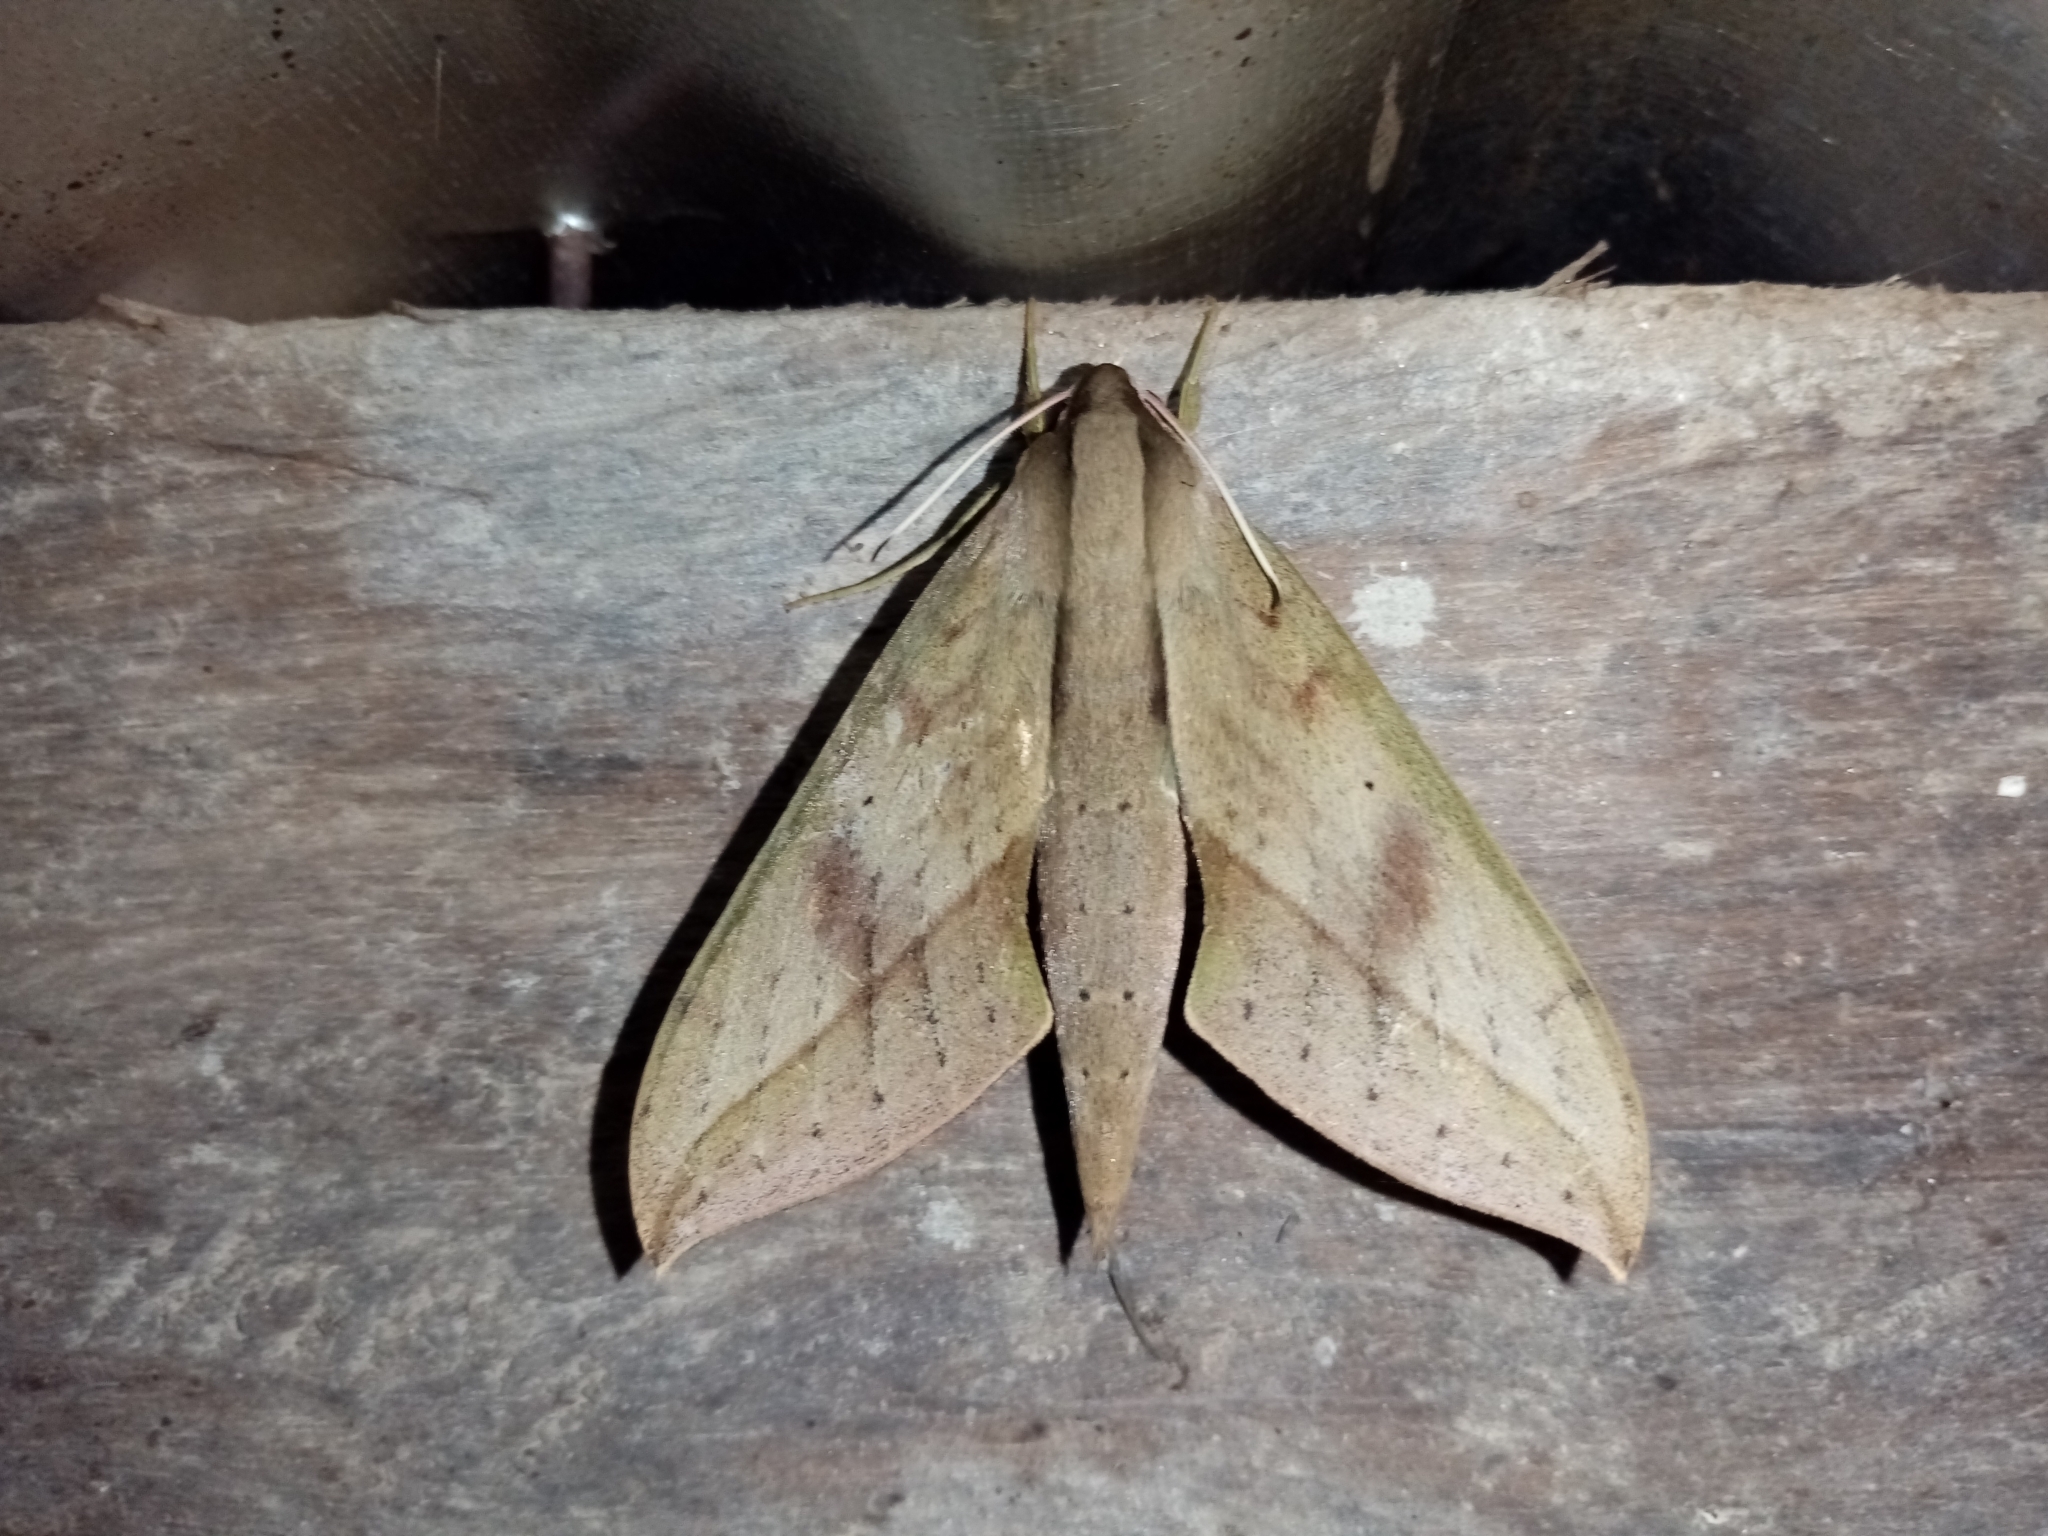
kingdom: Animalia
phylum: Arthropoda
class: Insecta
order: Lepidoptera
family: Sphingidae
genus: Xylophanes
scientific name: Xylophanes anubus
